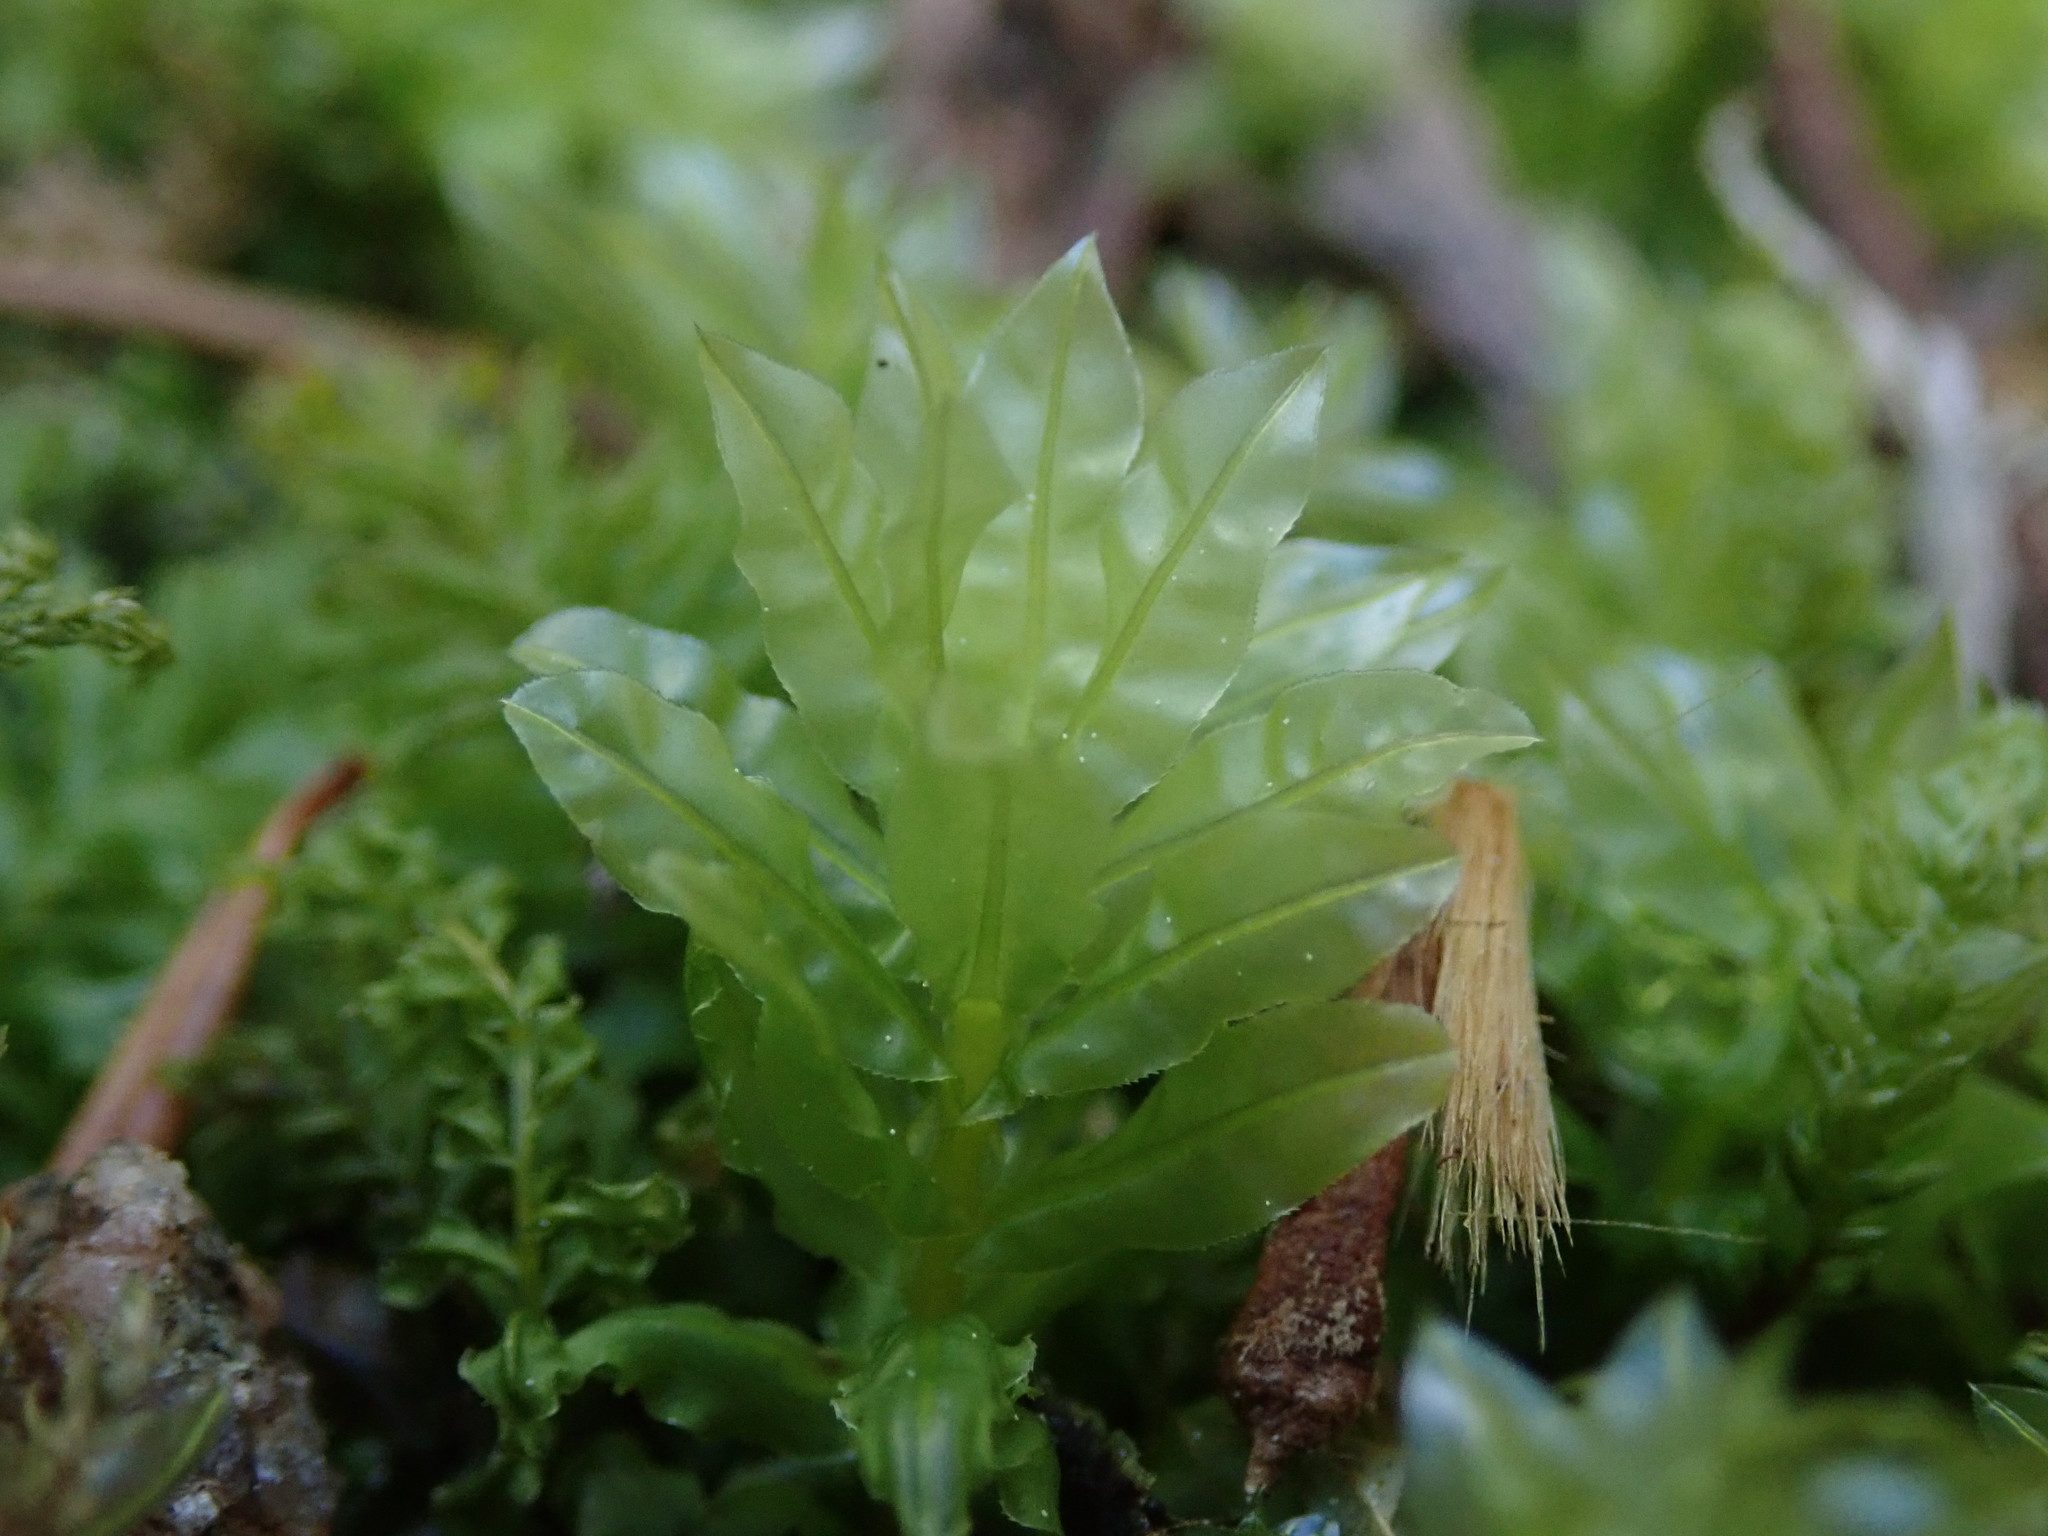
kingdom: Plantae
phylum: Bryophyta
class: Bryopsida
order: Bryales
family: Mniaceae
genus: Plagiomnium
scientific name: Plagiomnium undulatum
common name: Hart's-tongue thyme-moss
